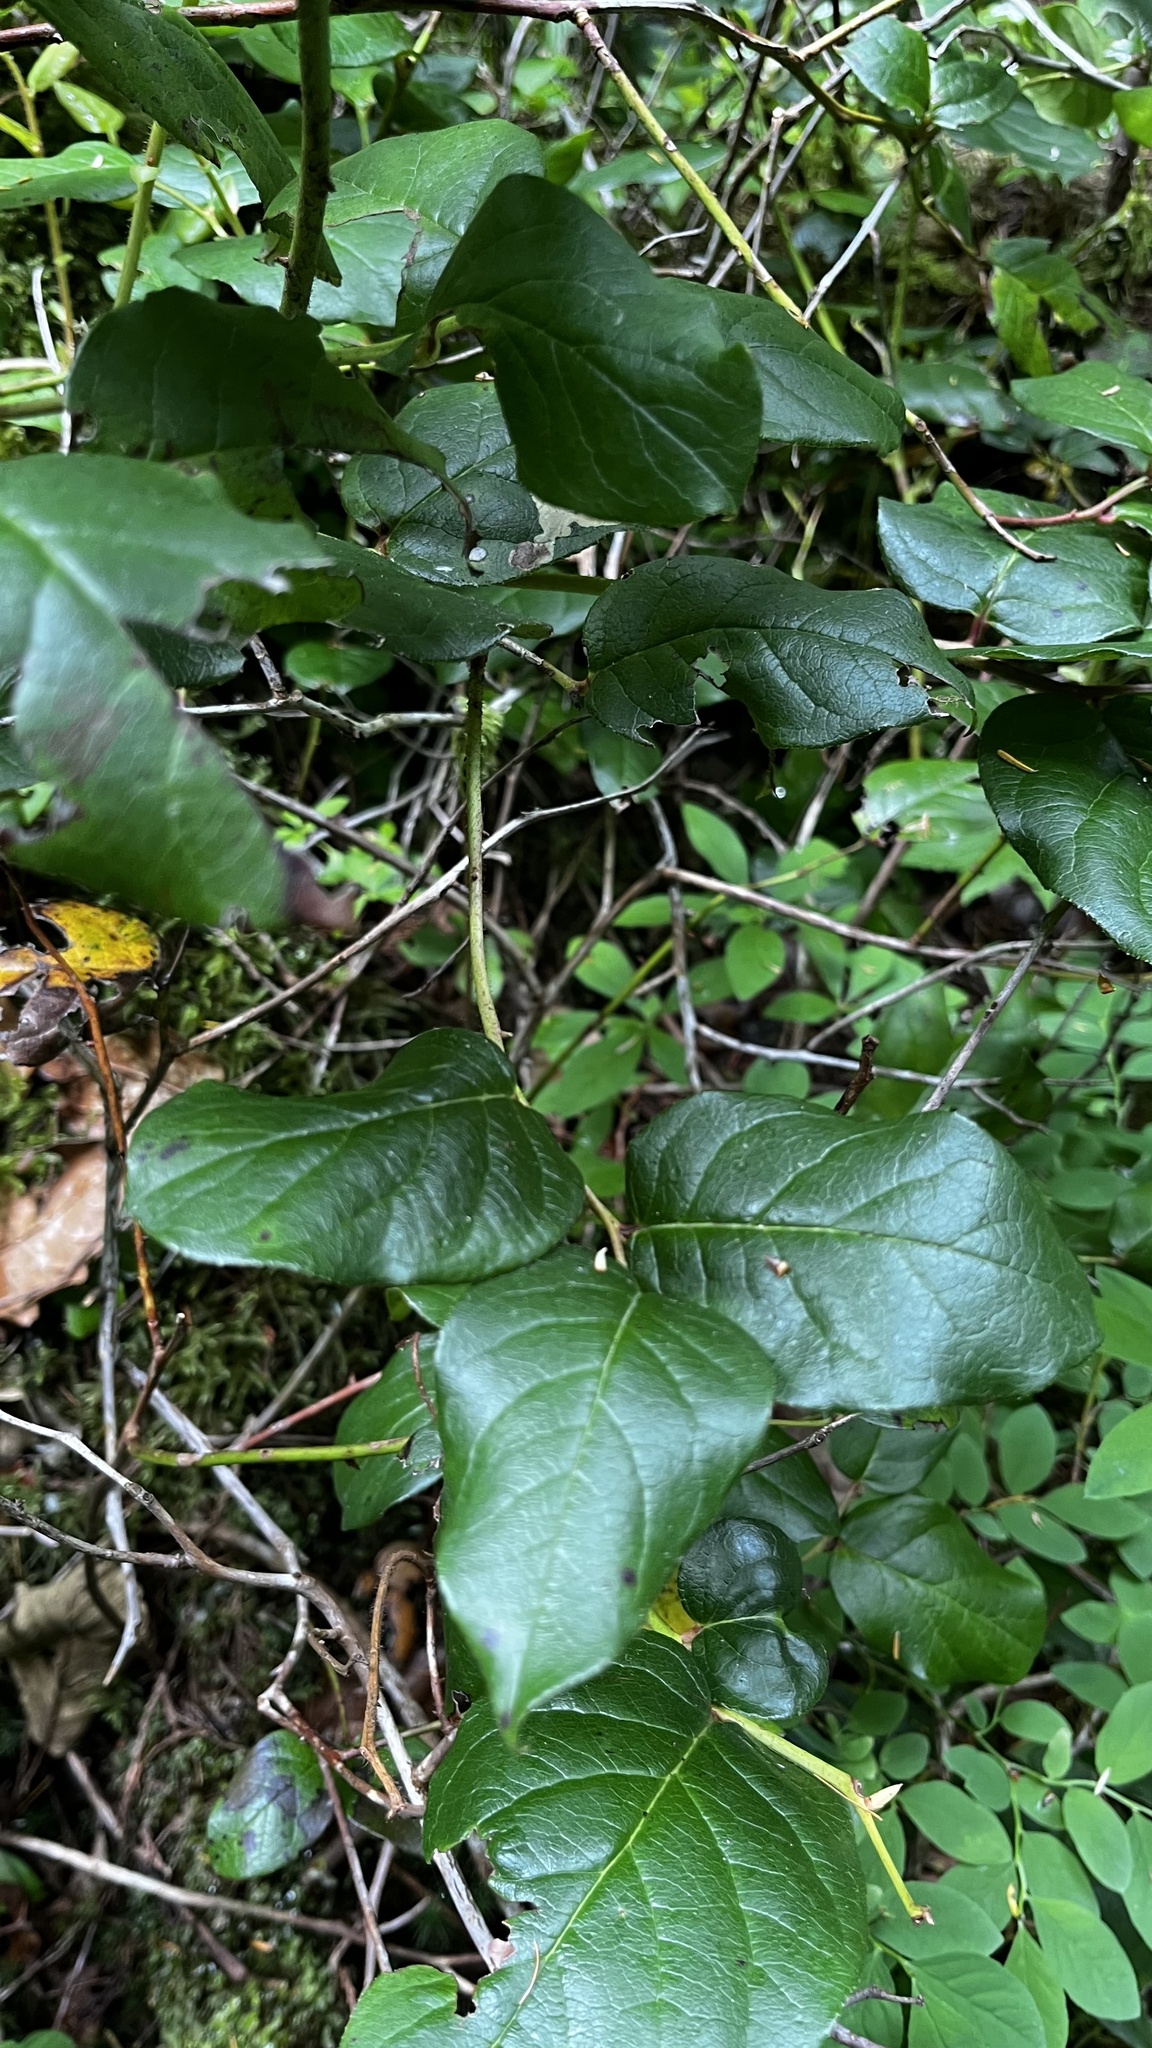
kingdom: Plantae
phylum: Tracheophyta
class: Magnoliopsida
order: Ericales
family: Ericaceae
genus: Gaultheria
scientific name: Gaultheria shallon
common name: Shallon
